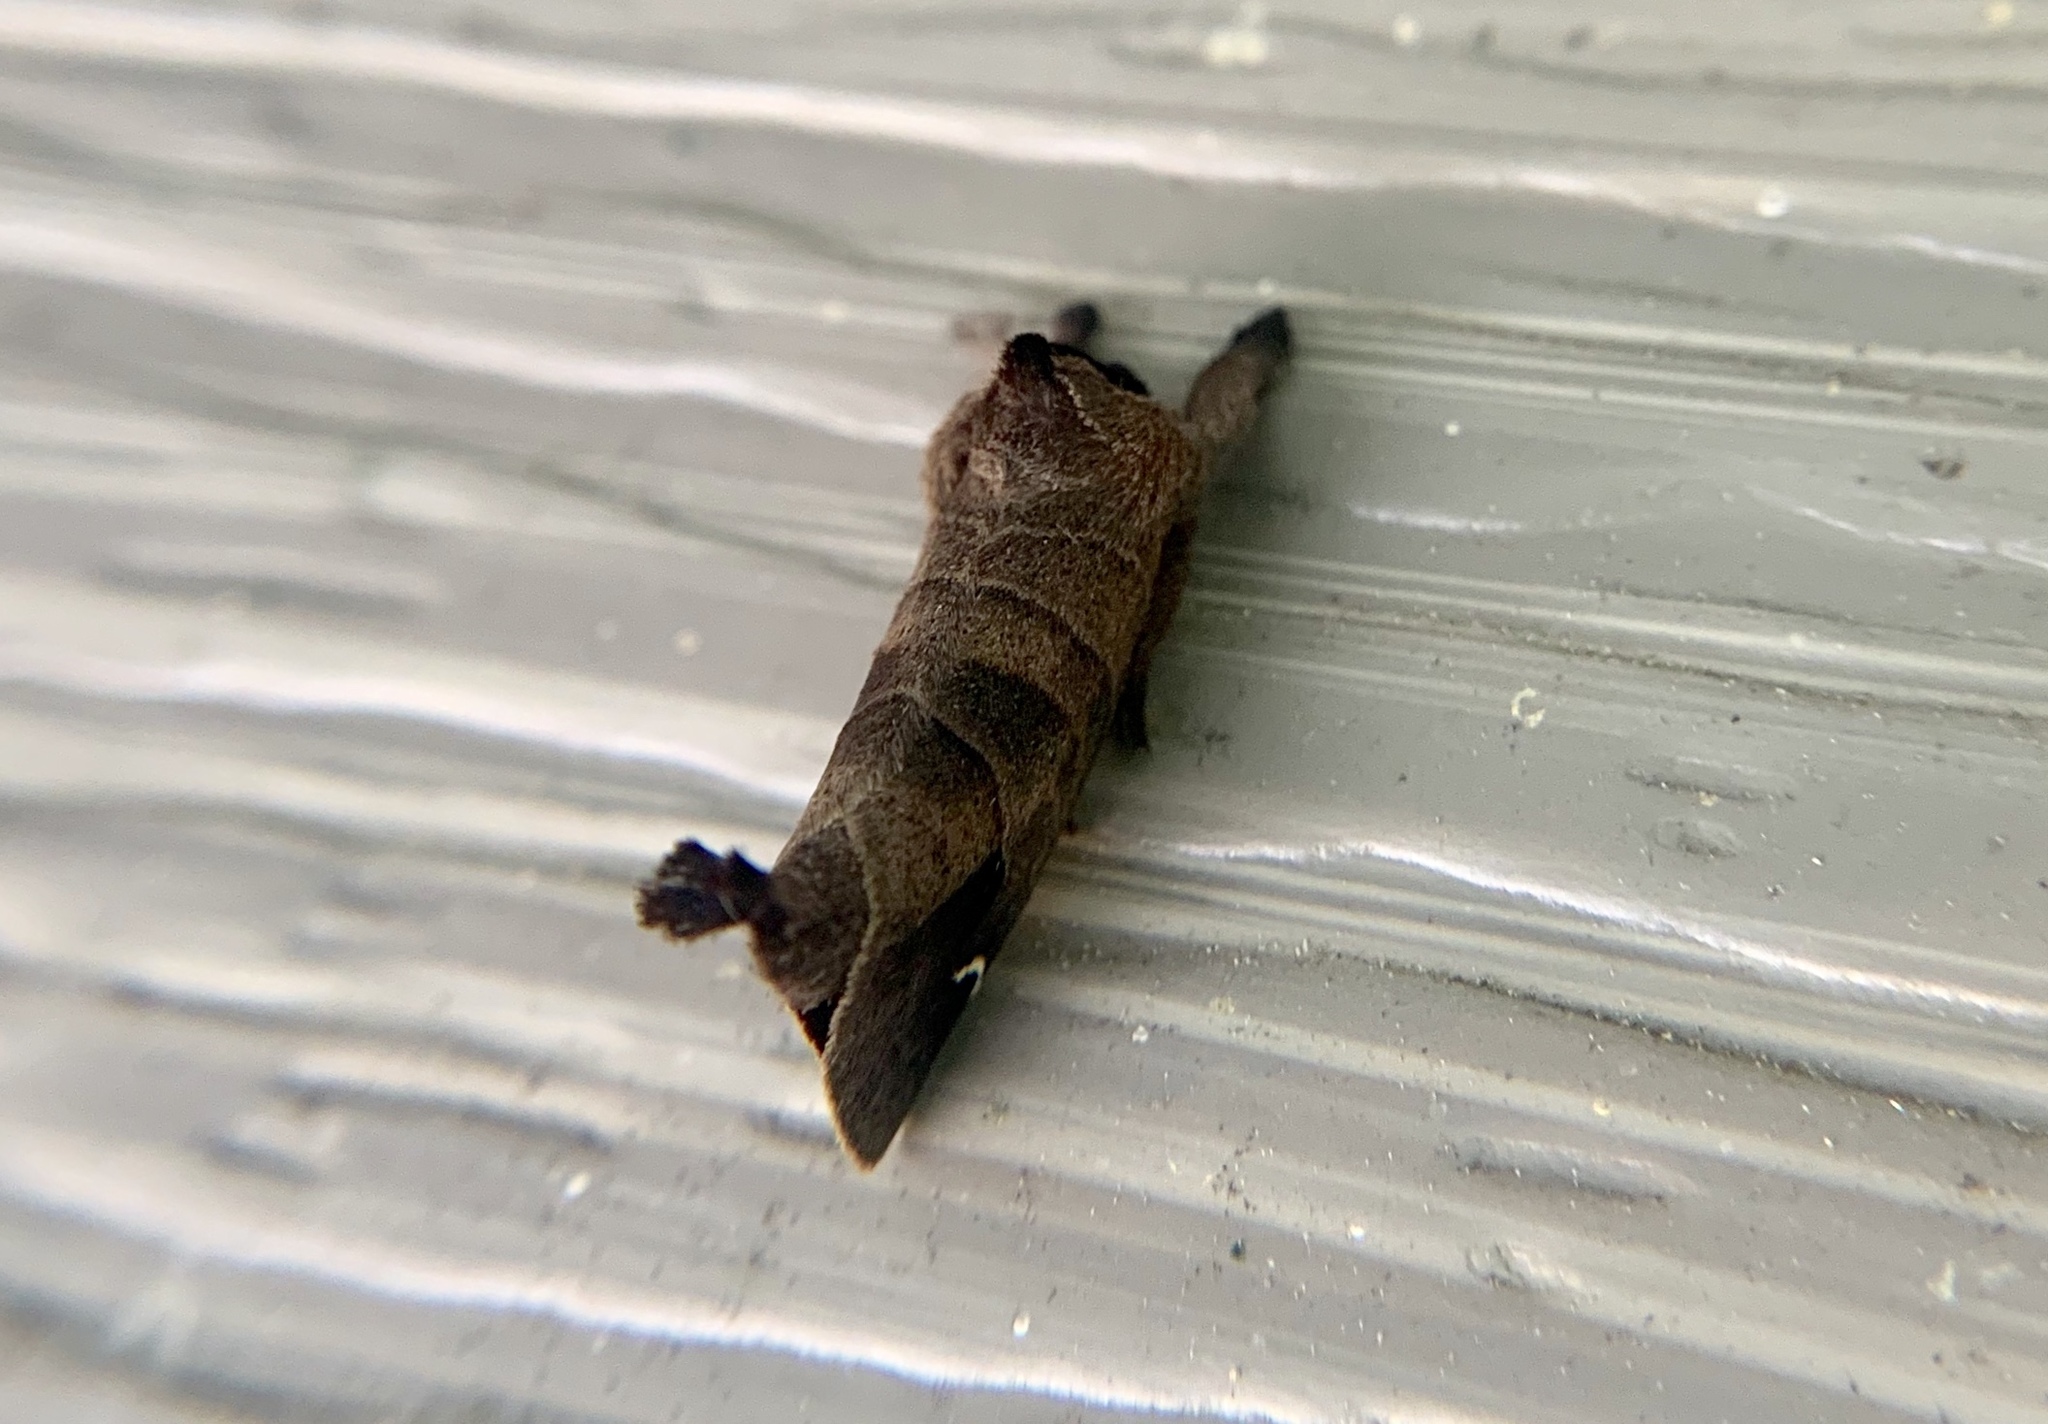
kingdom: Animalia
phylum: Arthropoda
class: Insecta
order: Lepidoptera
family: Notodontidae
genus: Clostera
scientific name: Clostera albosigma
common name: Sigmoid prominent
